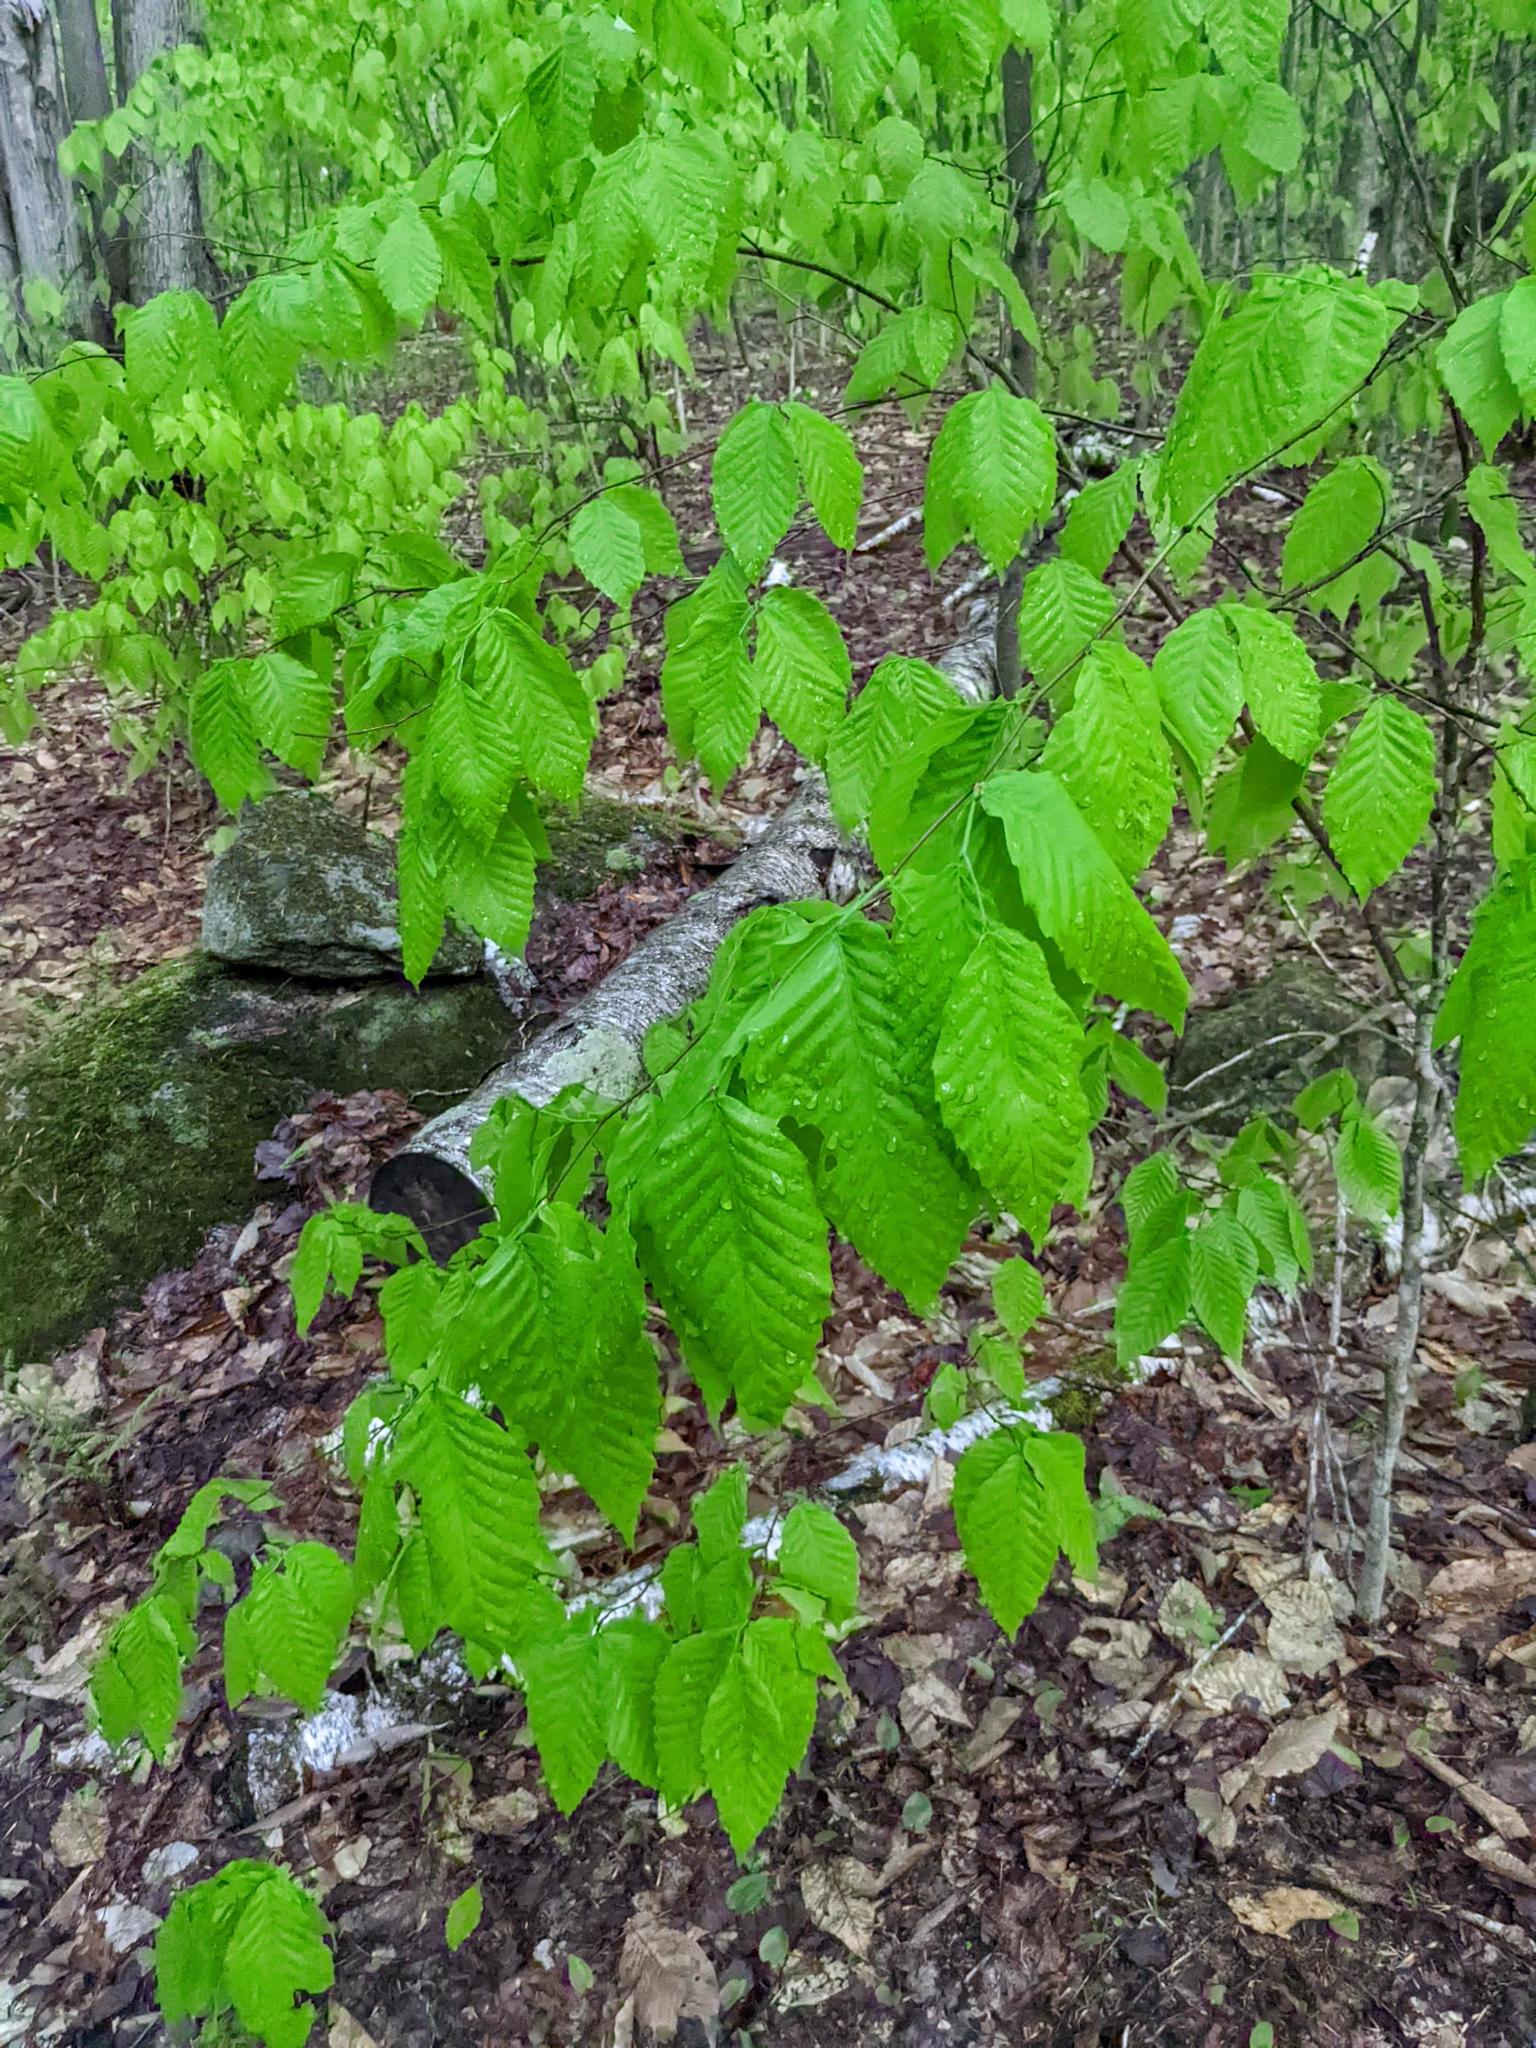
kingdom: Plantae
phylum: Tracheophyta
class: Magnoliopsida
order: Fagales
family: Fagaceae
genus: Fagus
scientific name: Fagus grandifolia
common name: American beech
